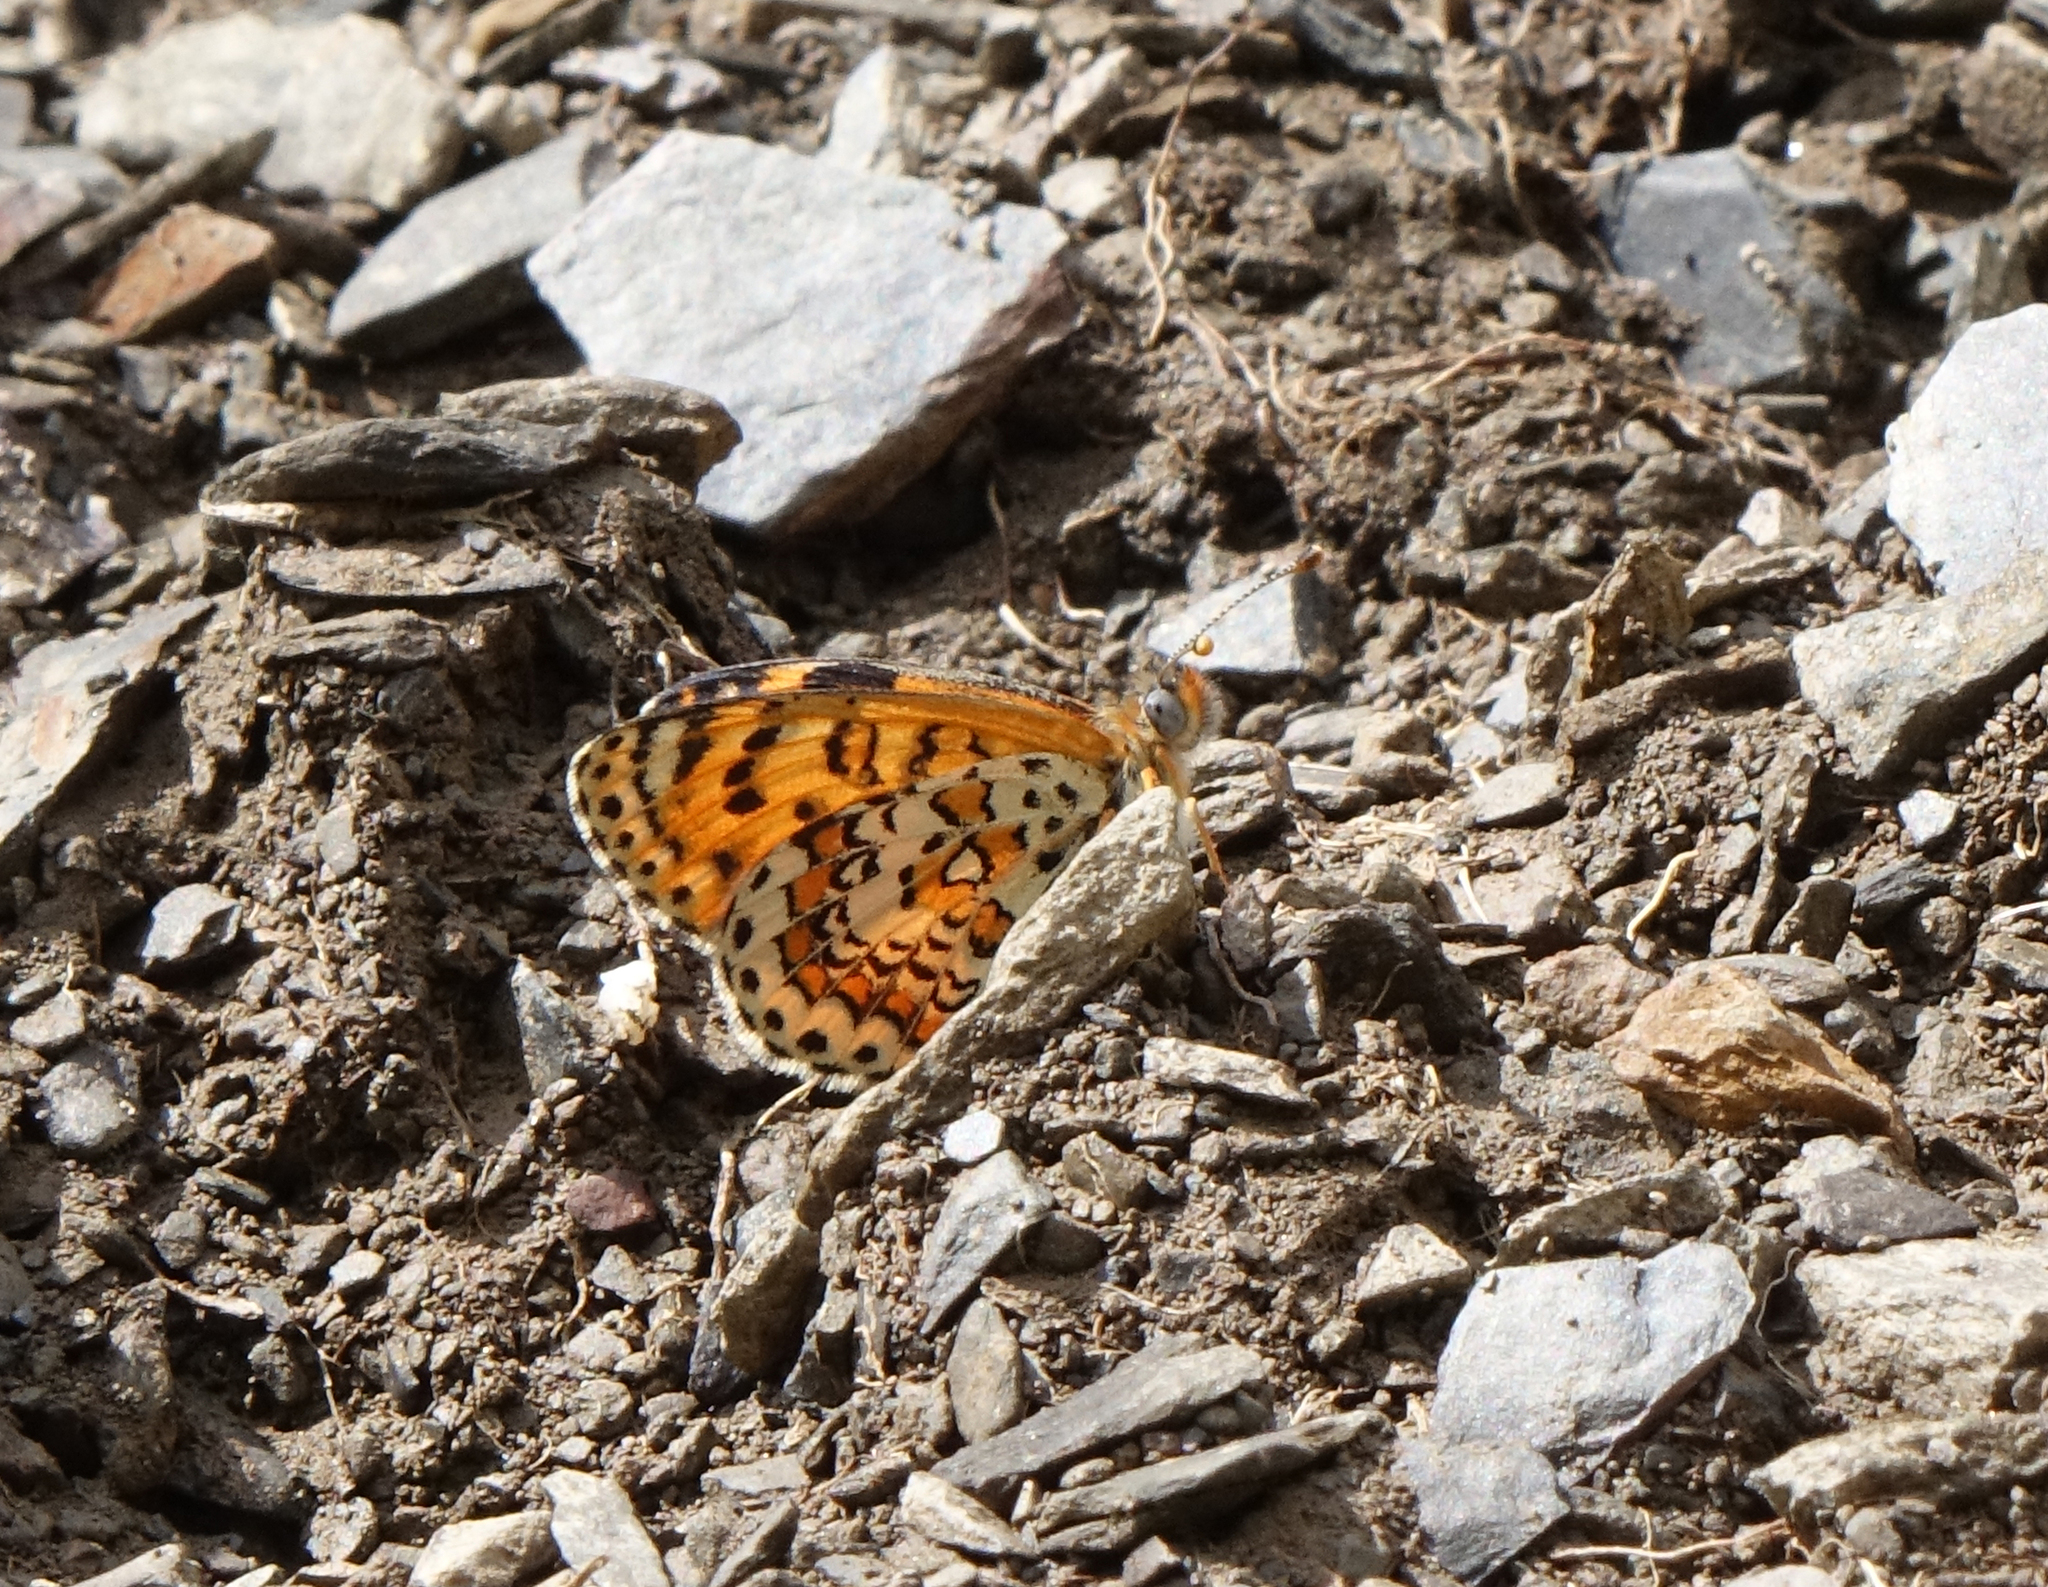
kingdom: Animalia
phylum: Arthropoda
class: Insecta
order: Lepidoptera
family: Nymphalidae
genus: Melitaea
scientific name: Melitaea trivia
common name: Lesser spotted fritillary
